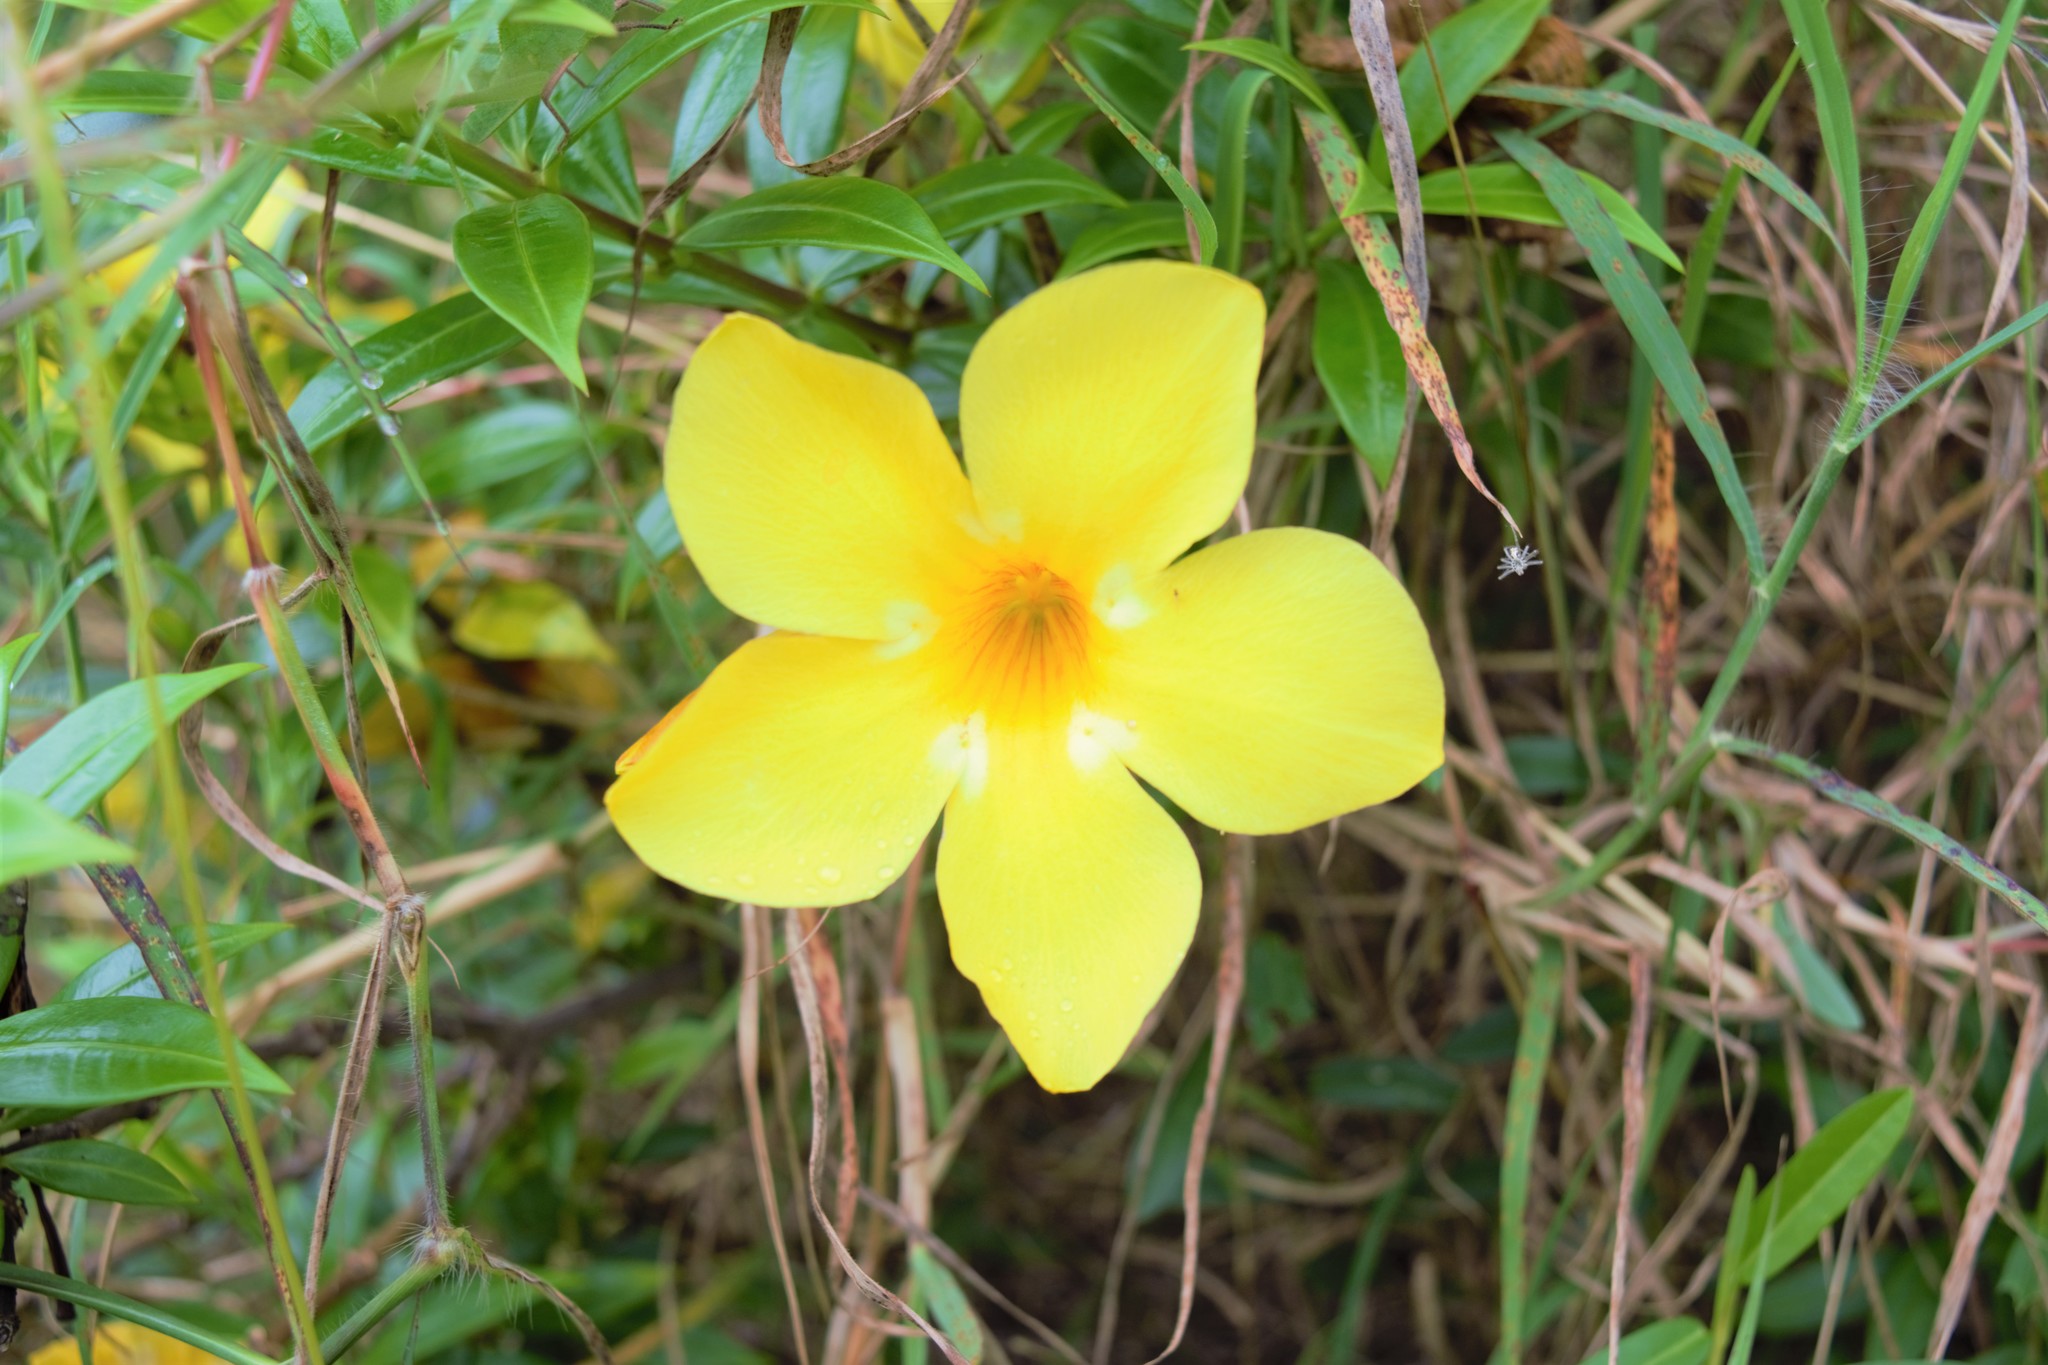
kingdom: Plantae
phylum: Tracheophyta
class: Magnoliopsida
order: Gentianales
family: Apocynaceae
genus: Allamanda
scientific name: Allamanda cathartica
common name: Golden trumpet
